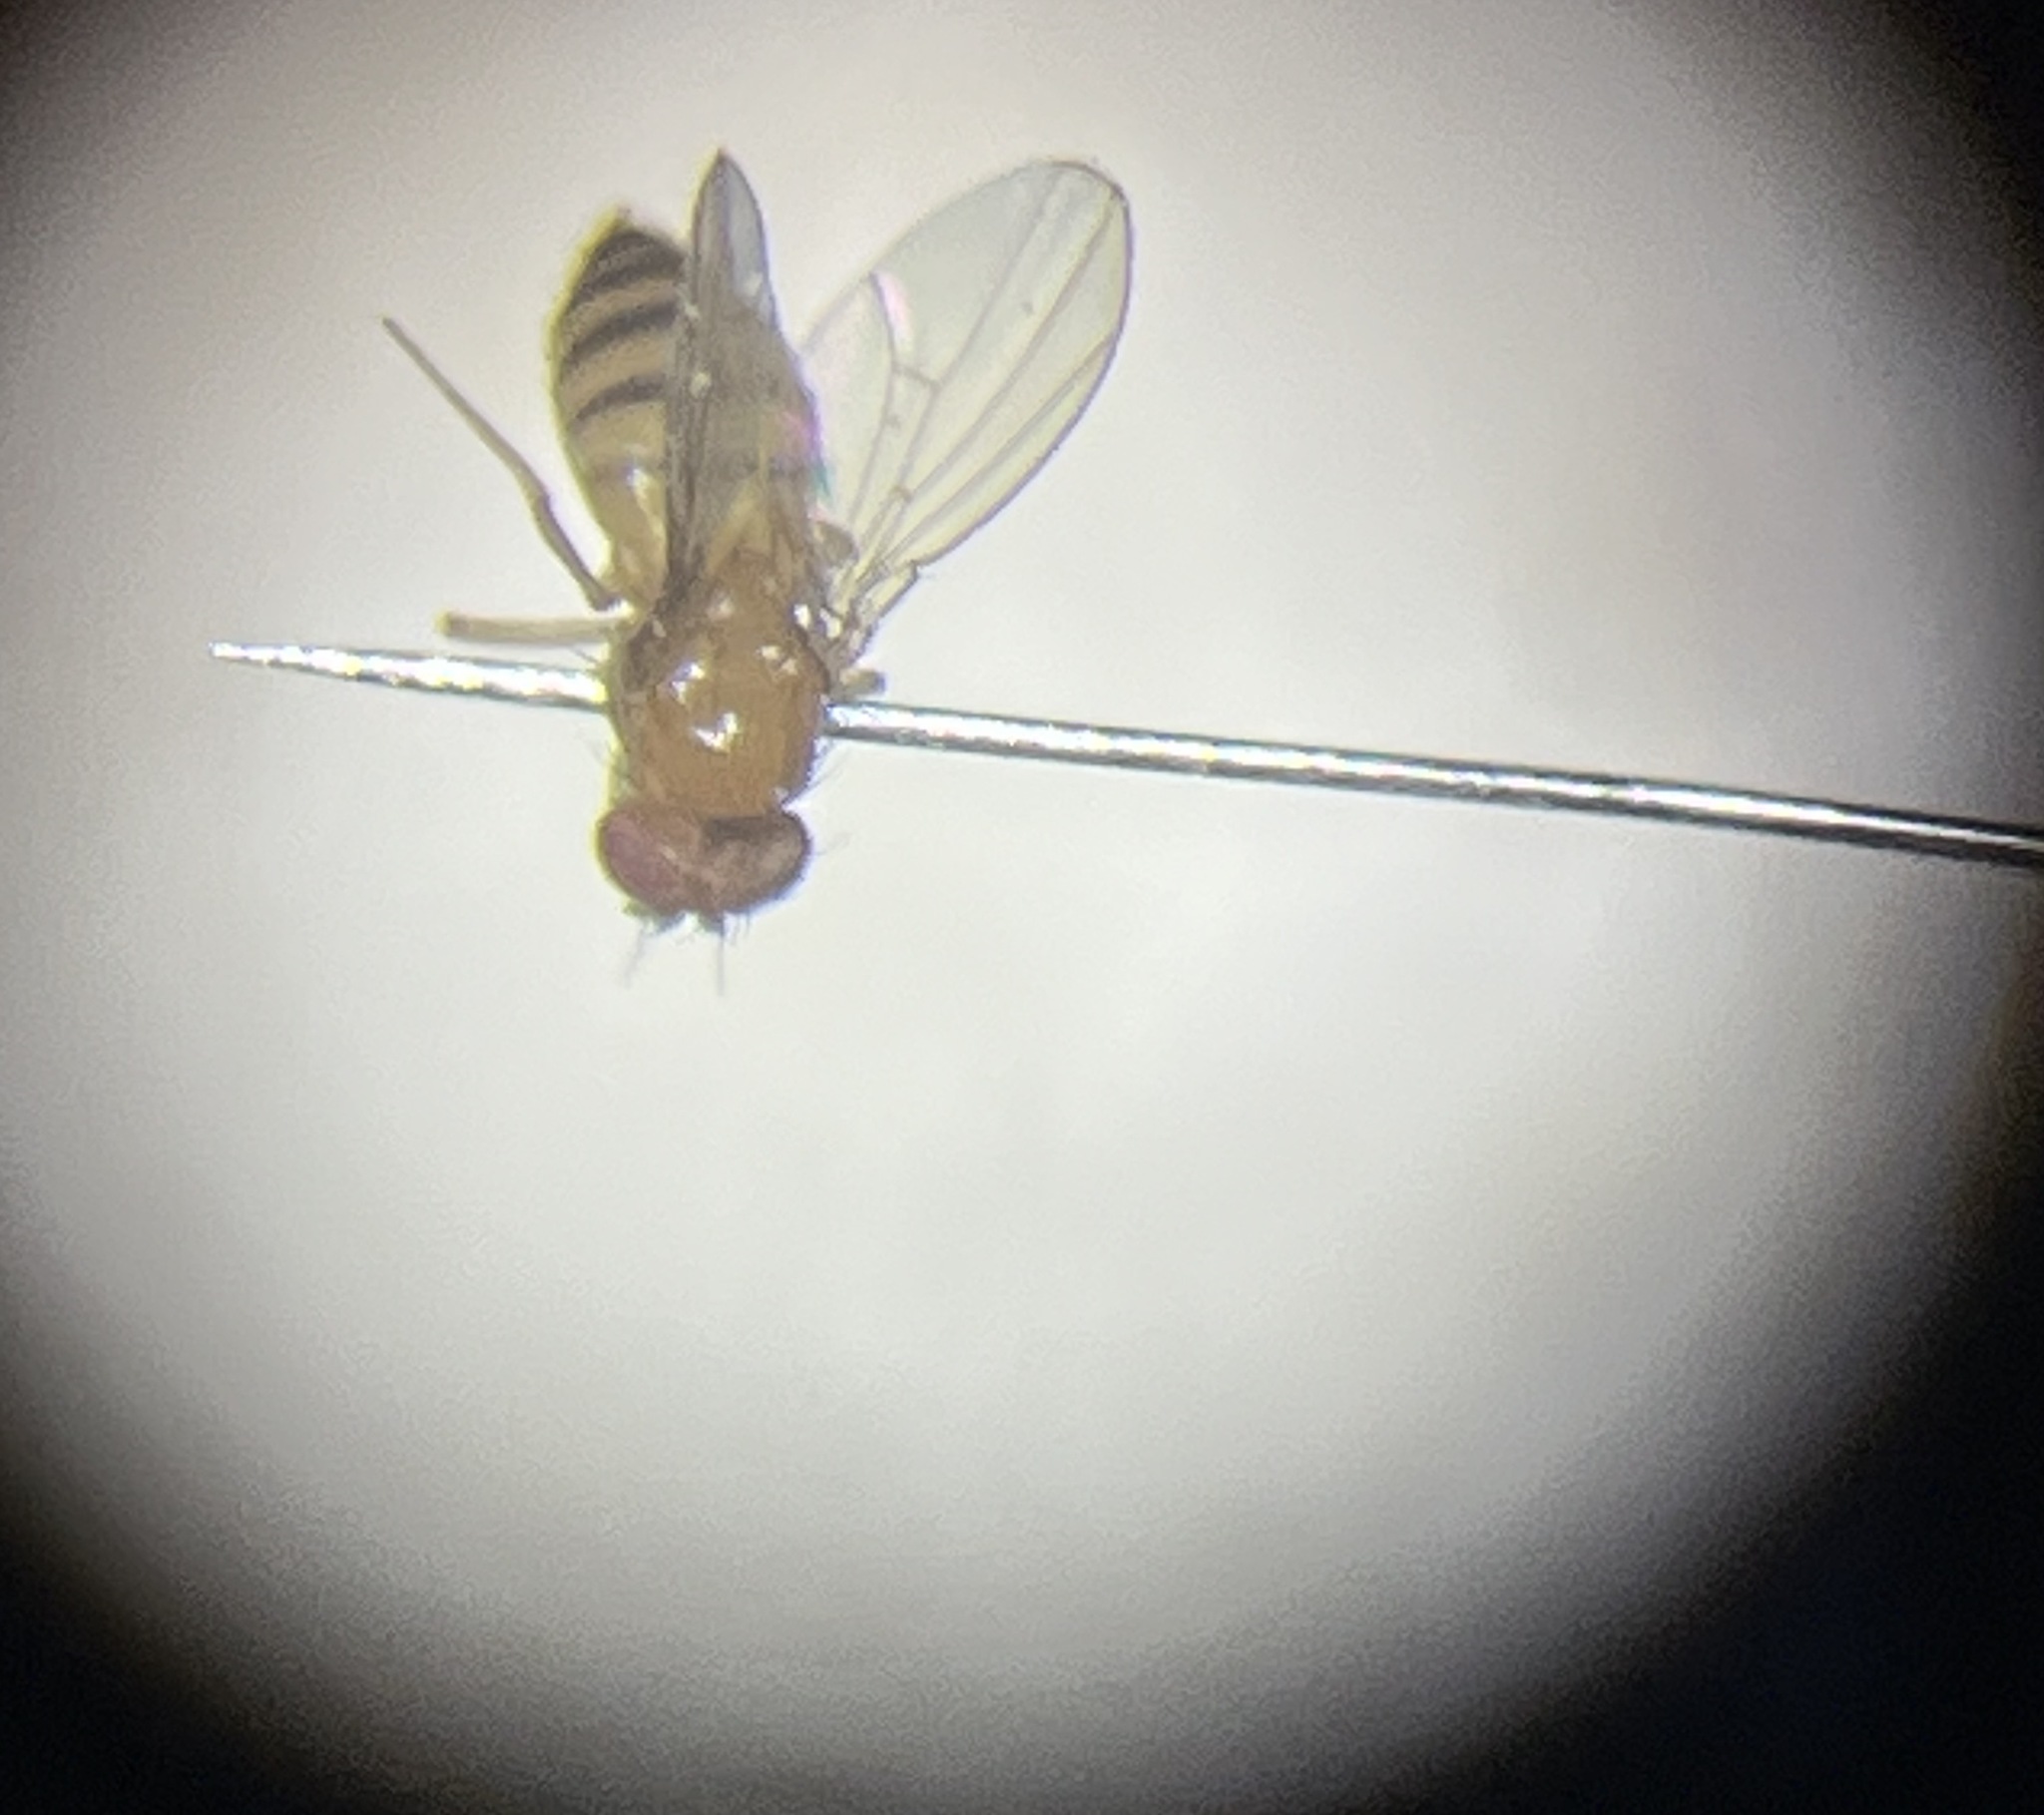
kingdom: Animalia
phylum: Arthropoda
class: Insecta
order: Diptera
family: Drosophilidae
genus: Drosophila
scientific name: Drosophila
